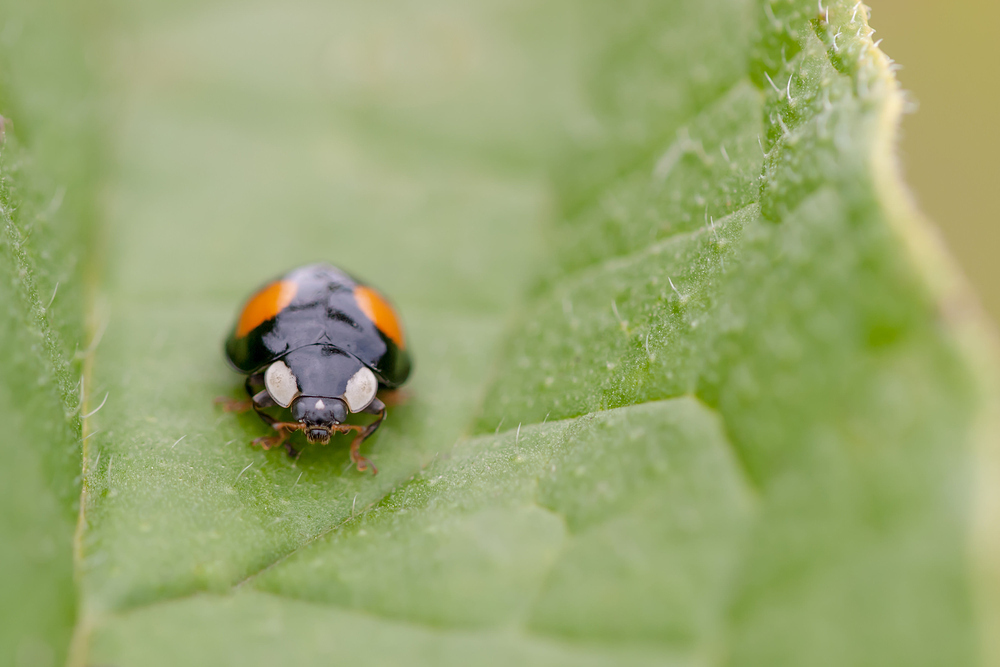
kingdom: Animalia
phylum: Arthropoda
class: Insecta
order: Coleoptera
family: Coccinellidae
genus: Harmonia
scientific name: Harmonia axyridis
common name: Harlequin ladybird
